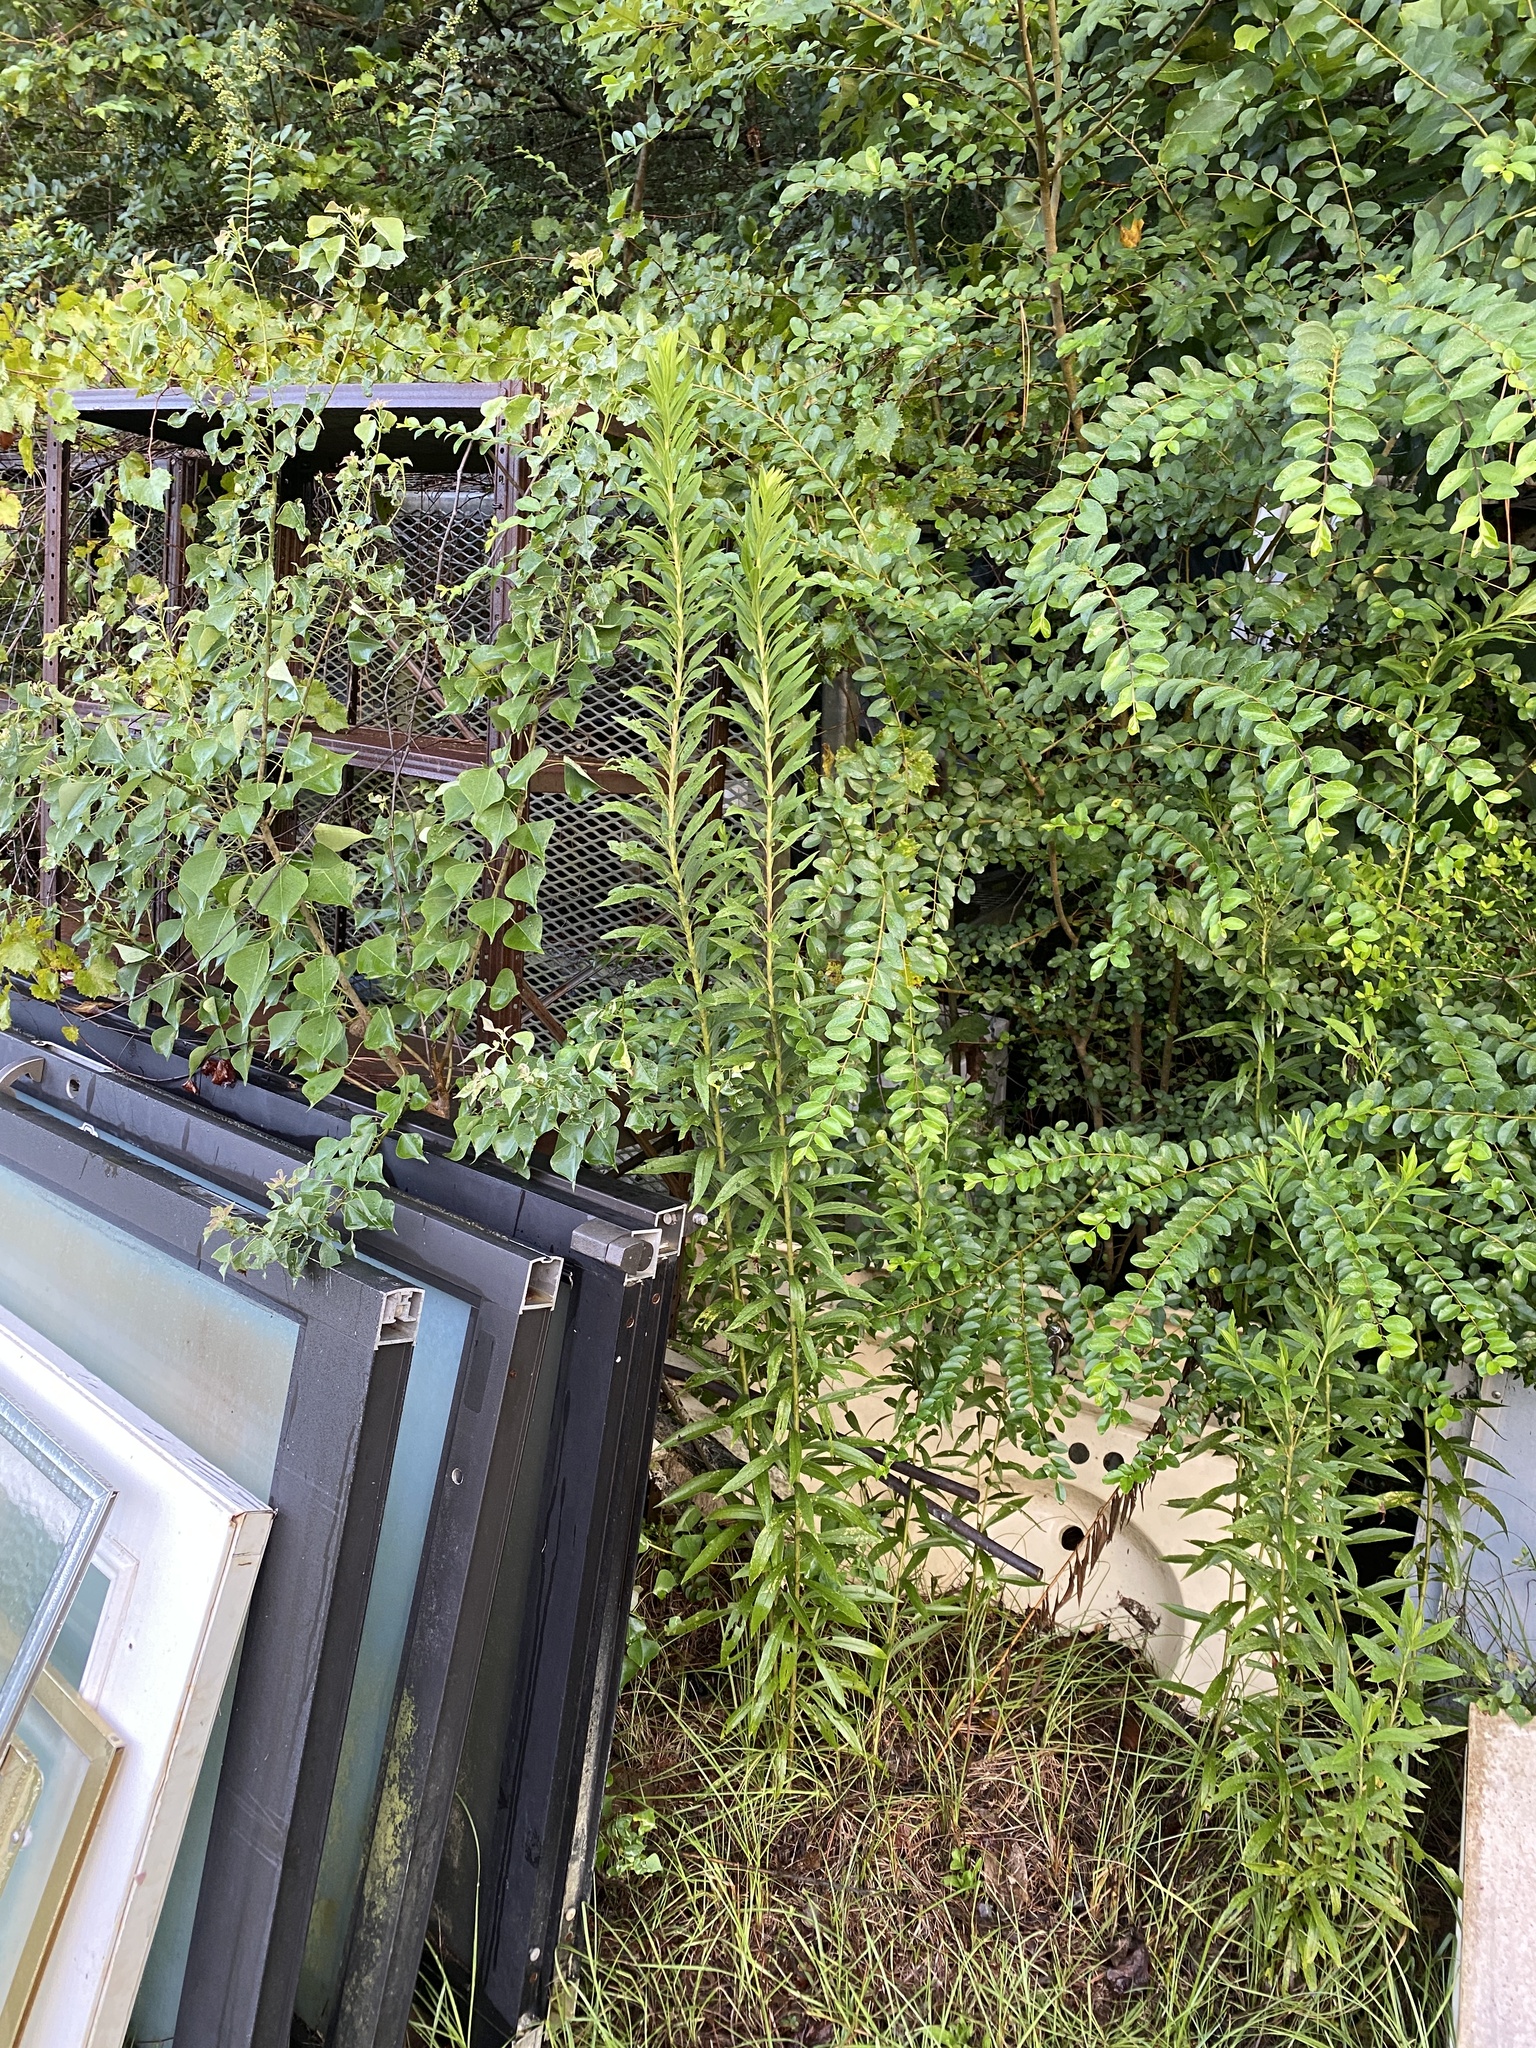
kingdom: Plantae
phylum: Tracheophyta
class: Magnoliopsida
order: Asterales
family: Asteraceae
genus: Solidago
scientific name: Solidago altissima
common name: Late goldenrod
